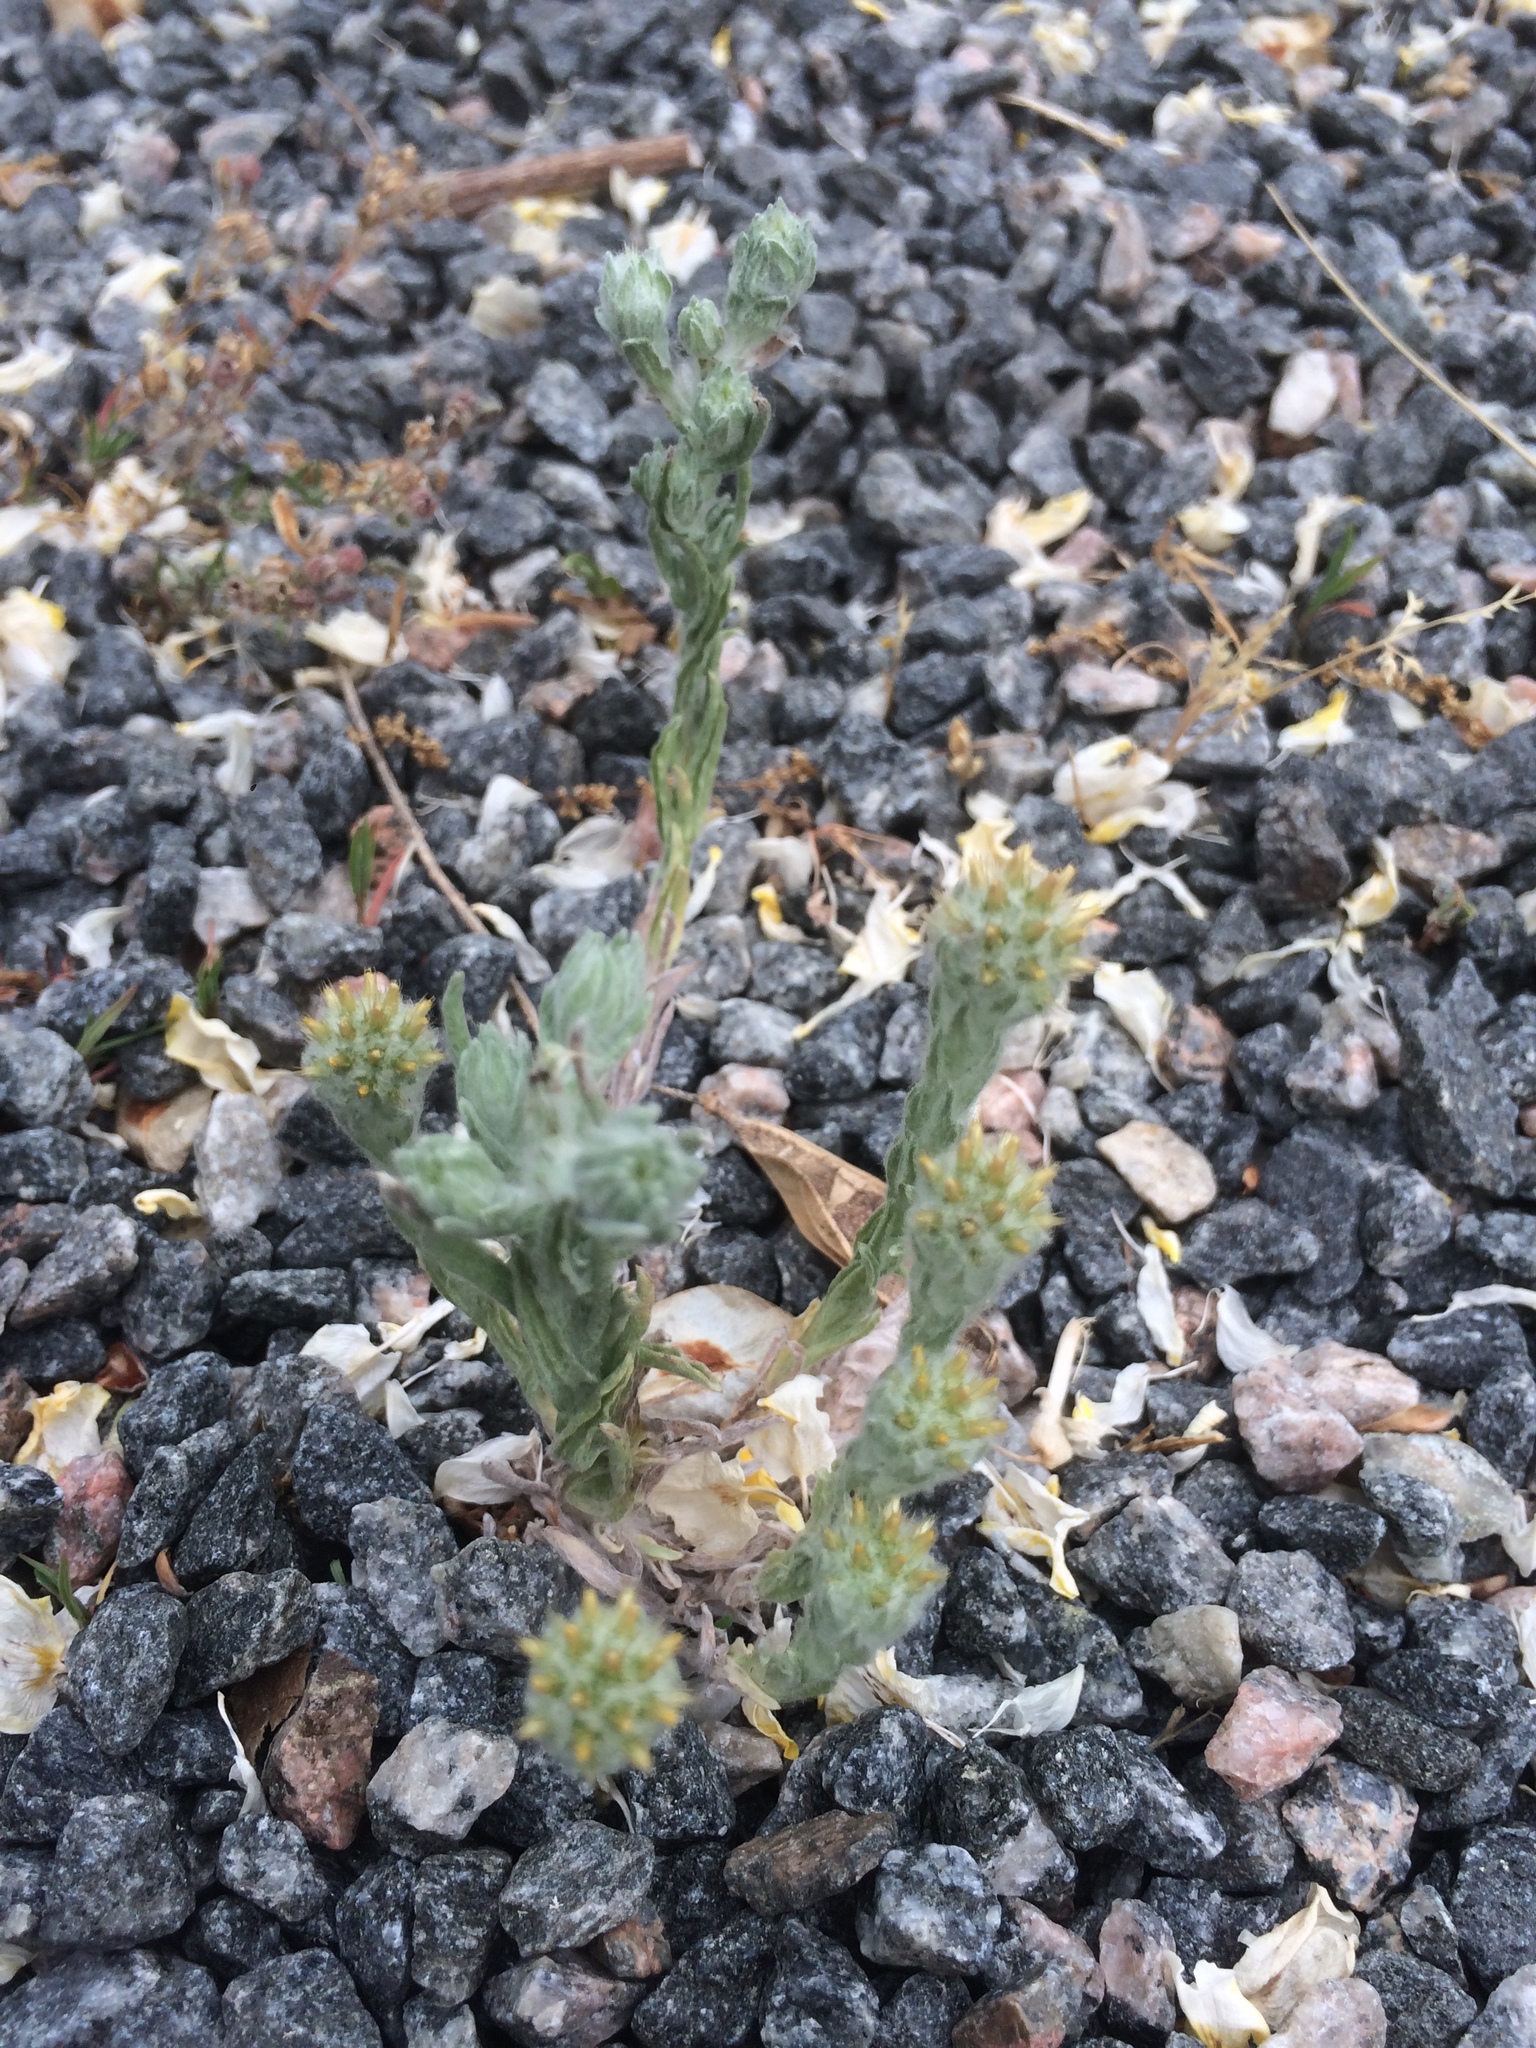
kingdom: Plantae
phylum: Tracheophyta
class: Magnoliopsida
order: Asterales
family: Asteraceae
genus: Filago
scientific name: Filago germanica
